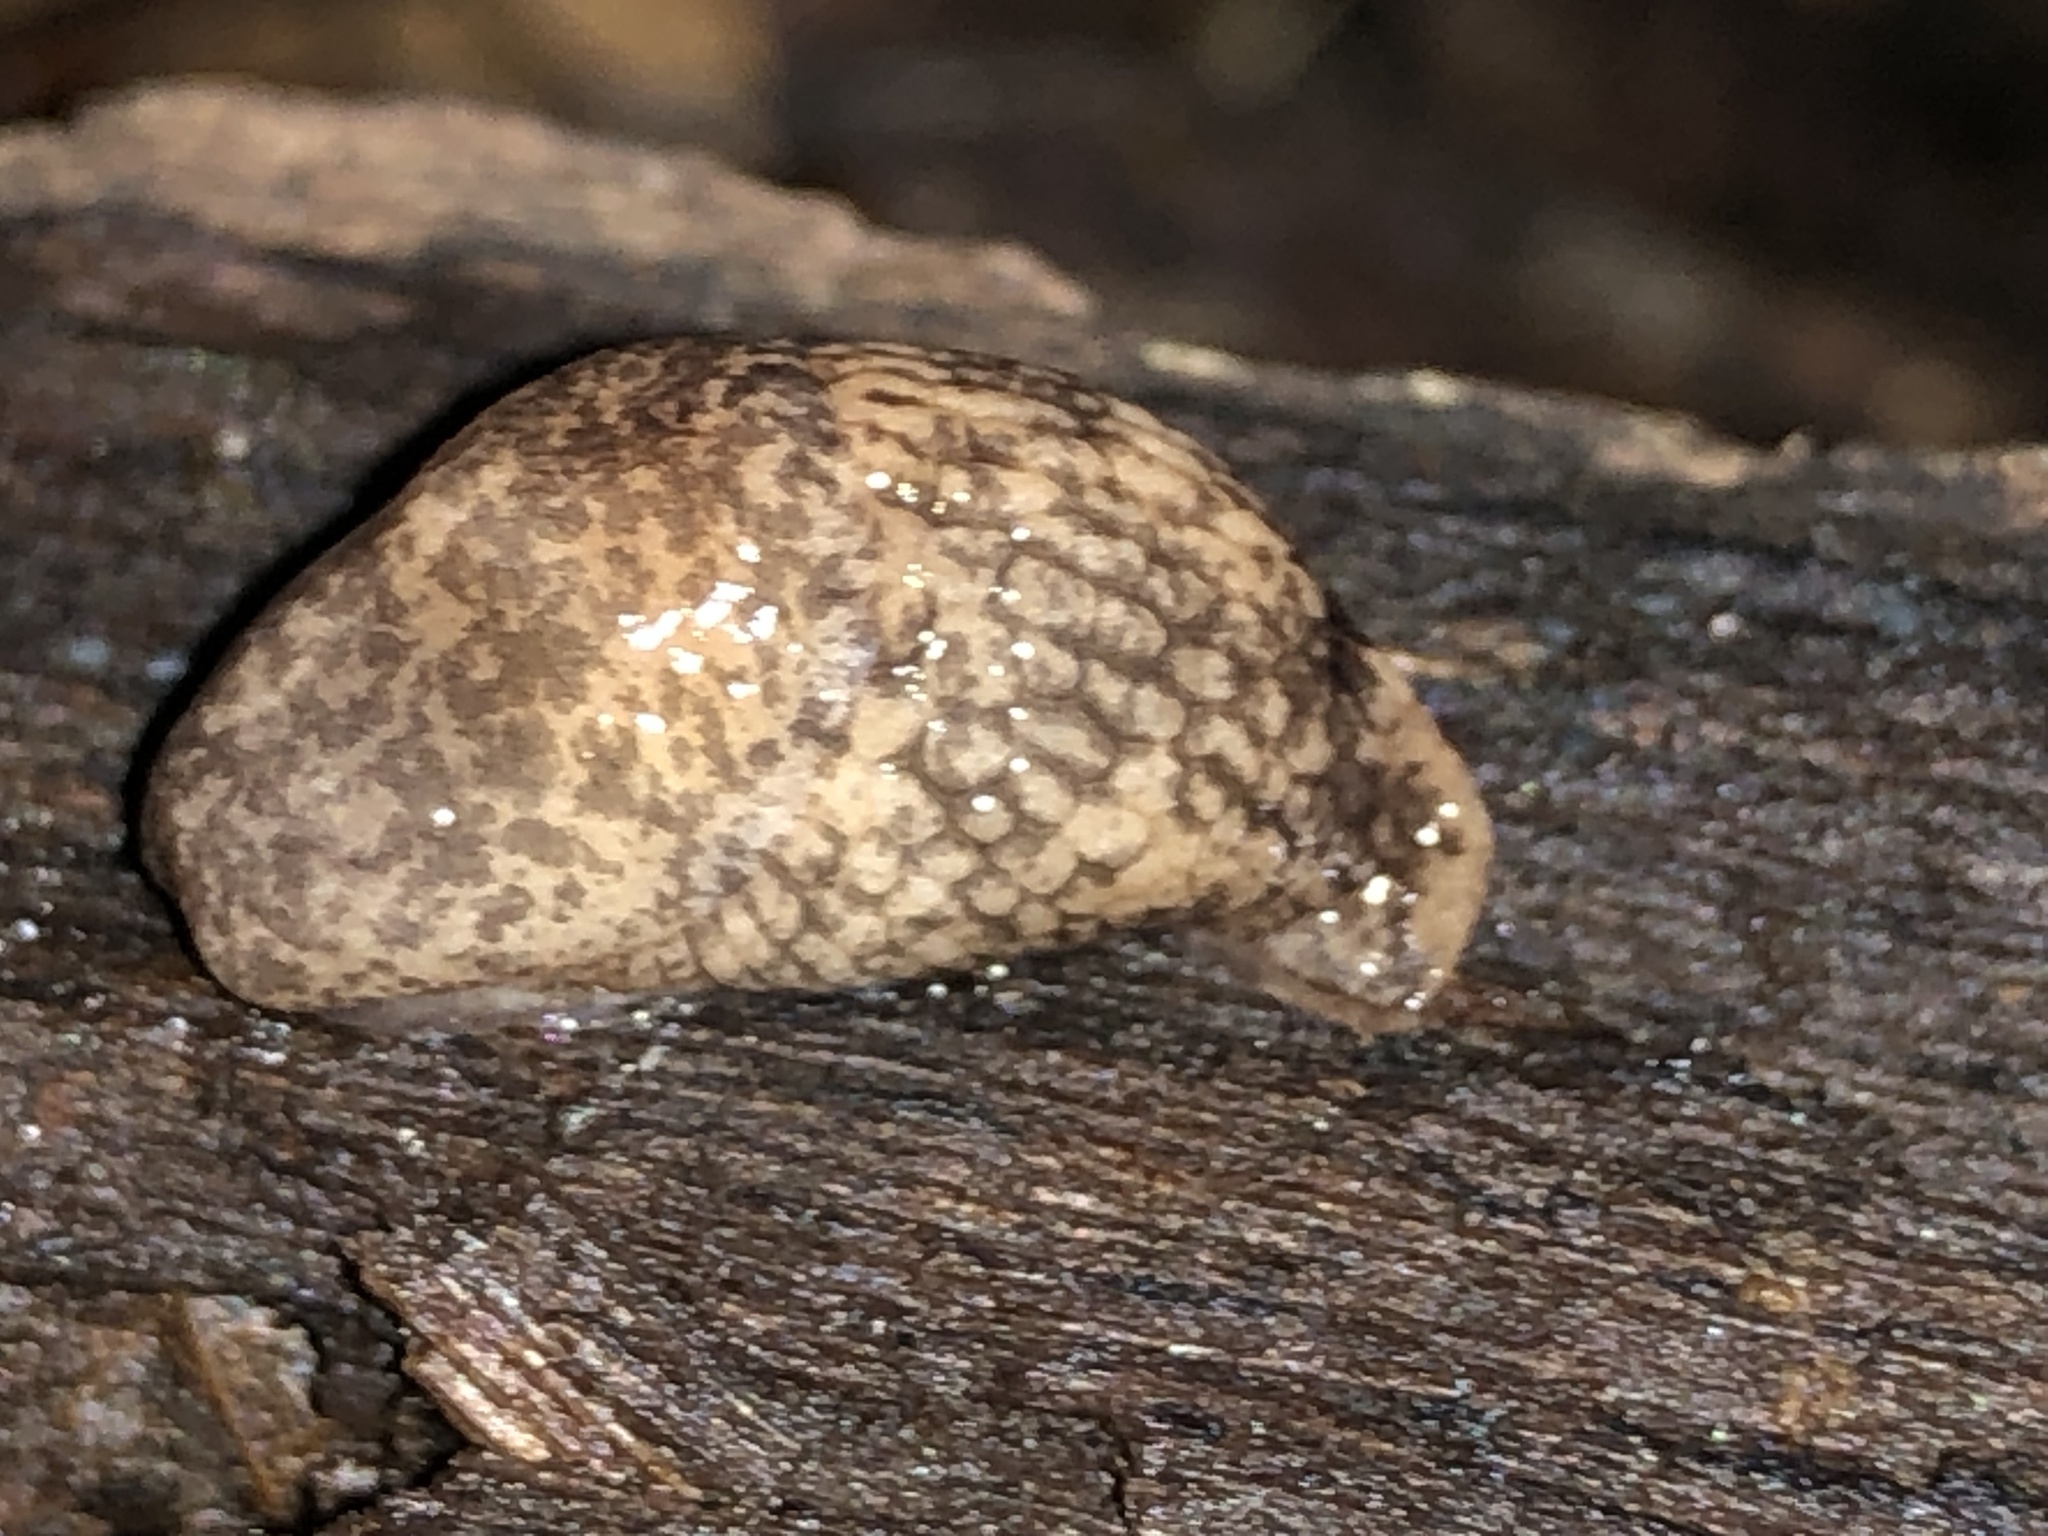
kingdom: Animalia
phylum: Mollusca
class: Gastropoda
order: Stylommatophora
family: Agriolimacidae
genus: Deroceras
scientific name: Deroceras reticulatum
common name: Gray field slug
